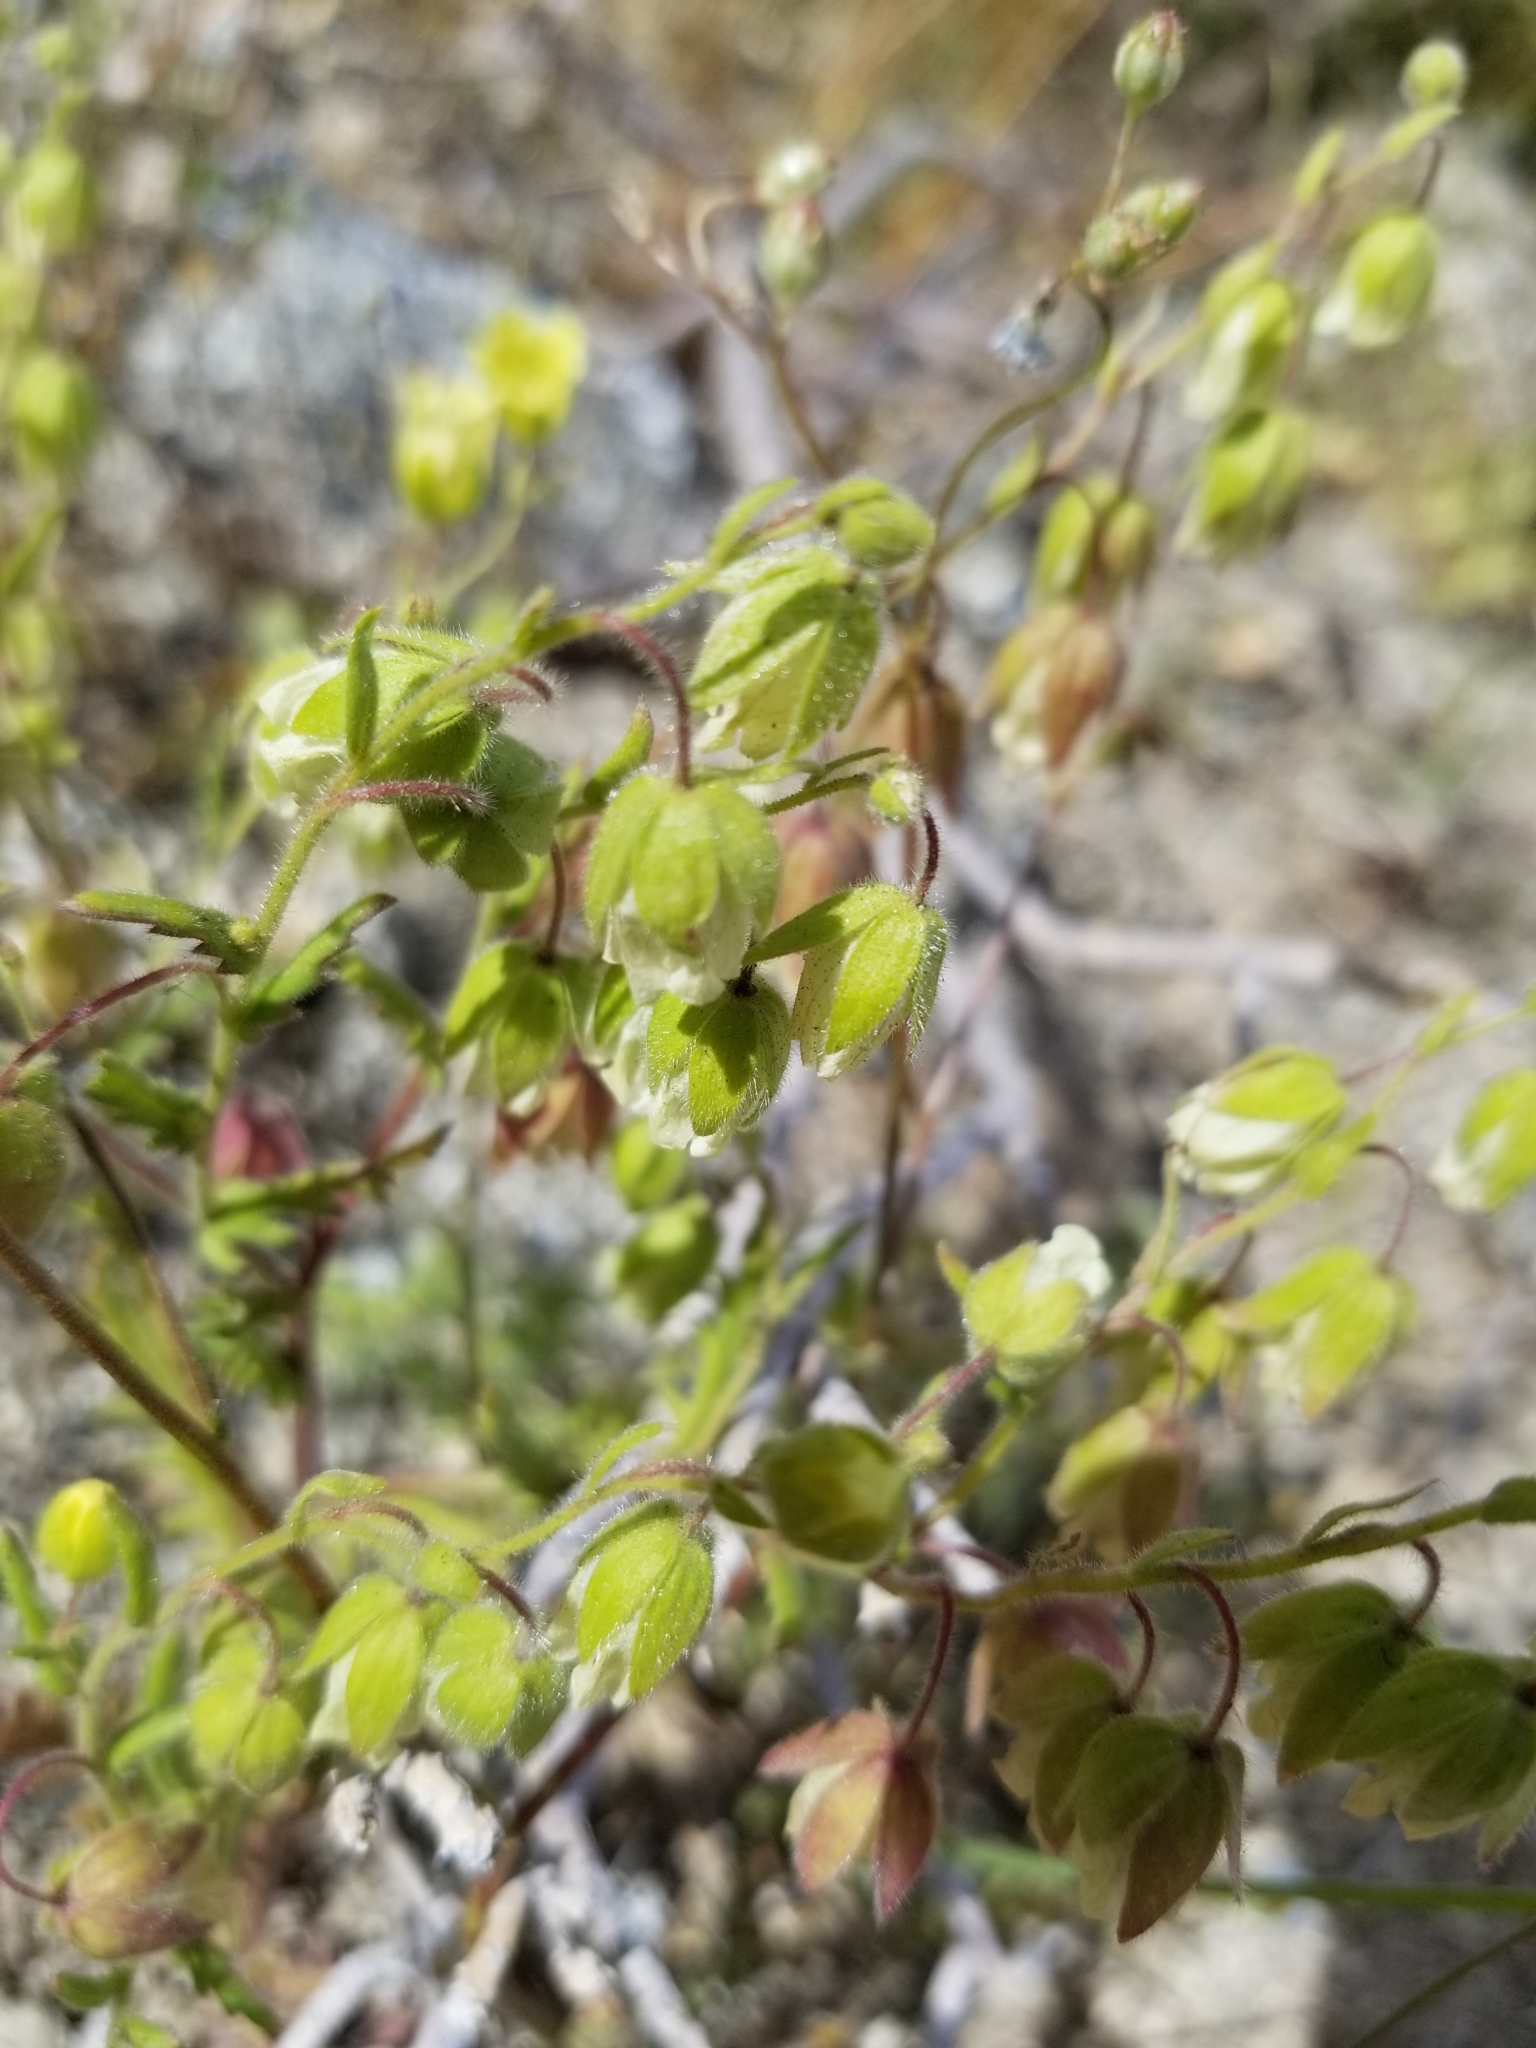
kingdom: Plantae
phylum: Tracheophyta
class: Magnoliopsida
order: Boraginales
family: Hydrophyllaceae
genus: Emmenanthe
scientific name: Emmenanthe penduliflora
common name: Whispering-bells
